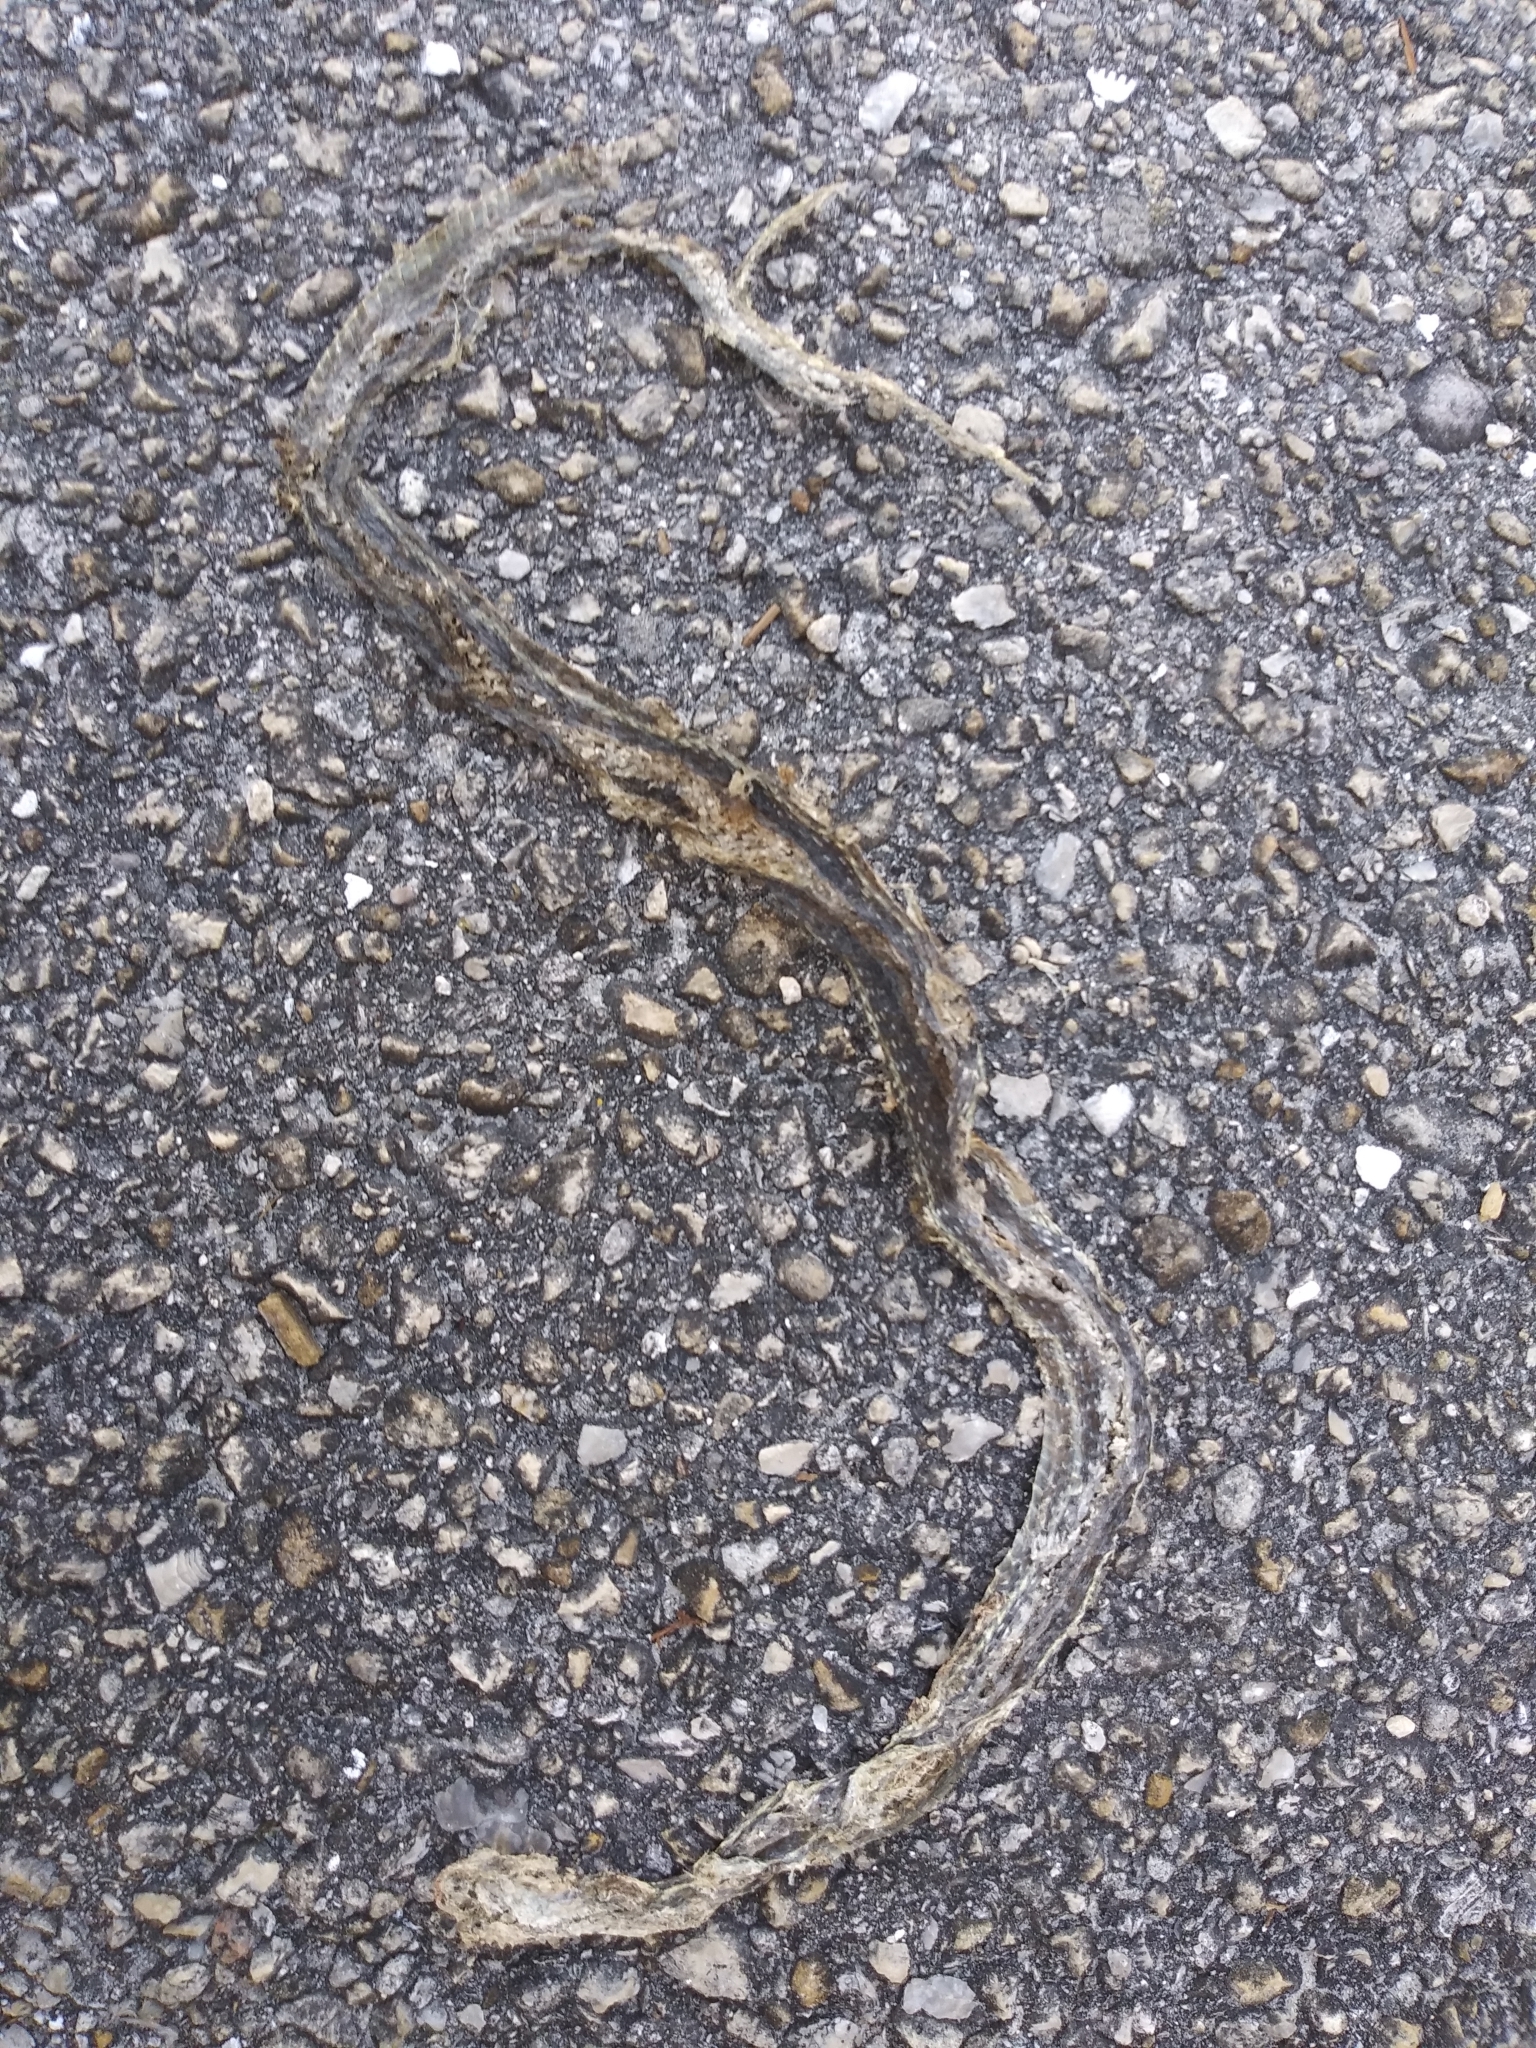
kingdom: Animalia
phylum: Chordata
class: Squamata
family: Colubridae
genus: Thamnophis
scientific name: Thamnophis saurita
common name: Eastern ribbonsnake
